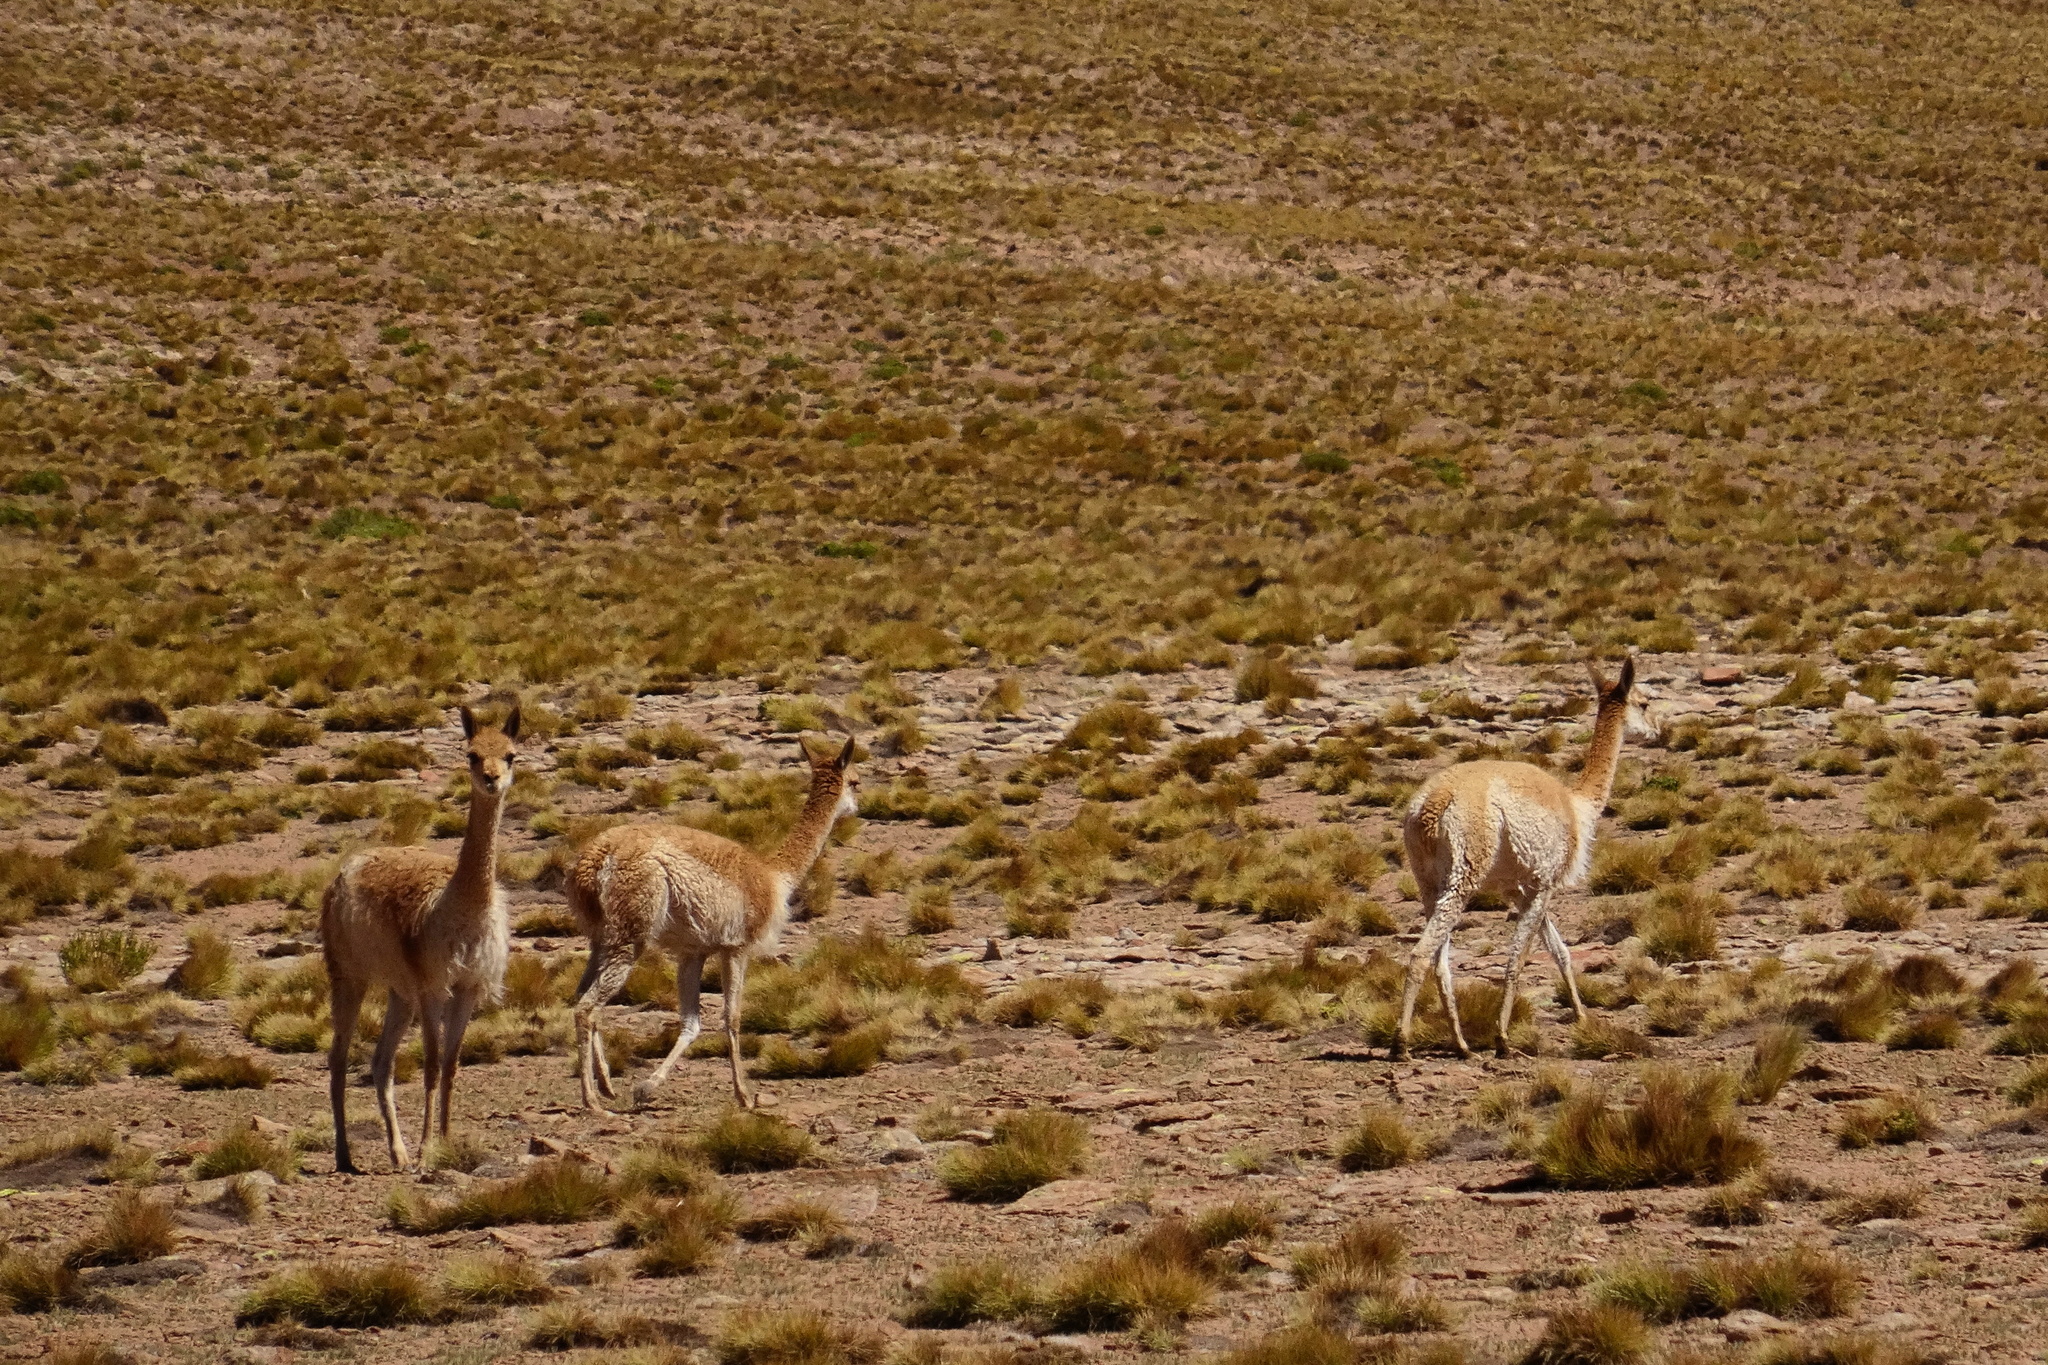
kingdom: Animalia
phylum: Chordata
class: Mammalia
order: Artiodactyla
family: Camelidae
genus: Vicugna
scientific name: Vicugna vicugna
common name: Vicugna
